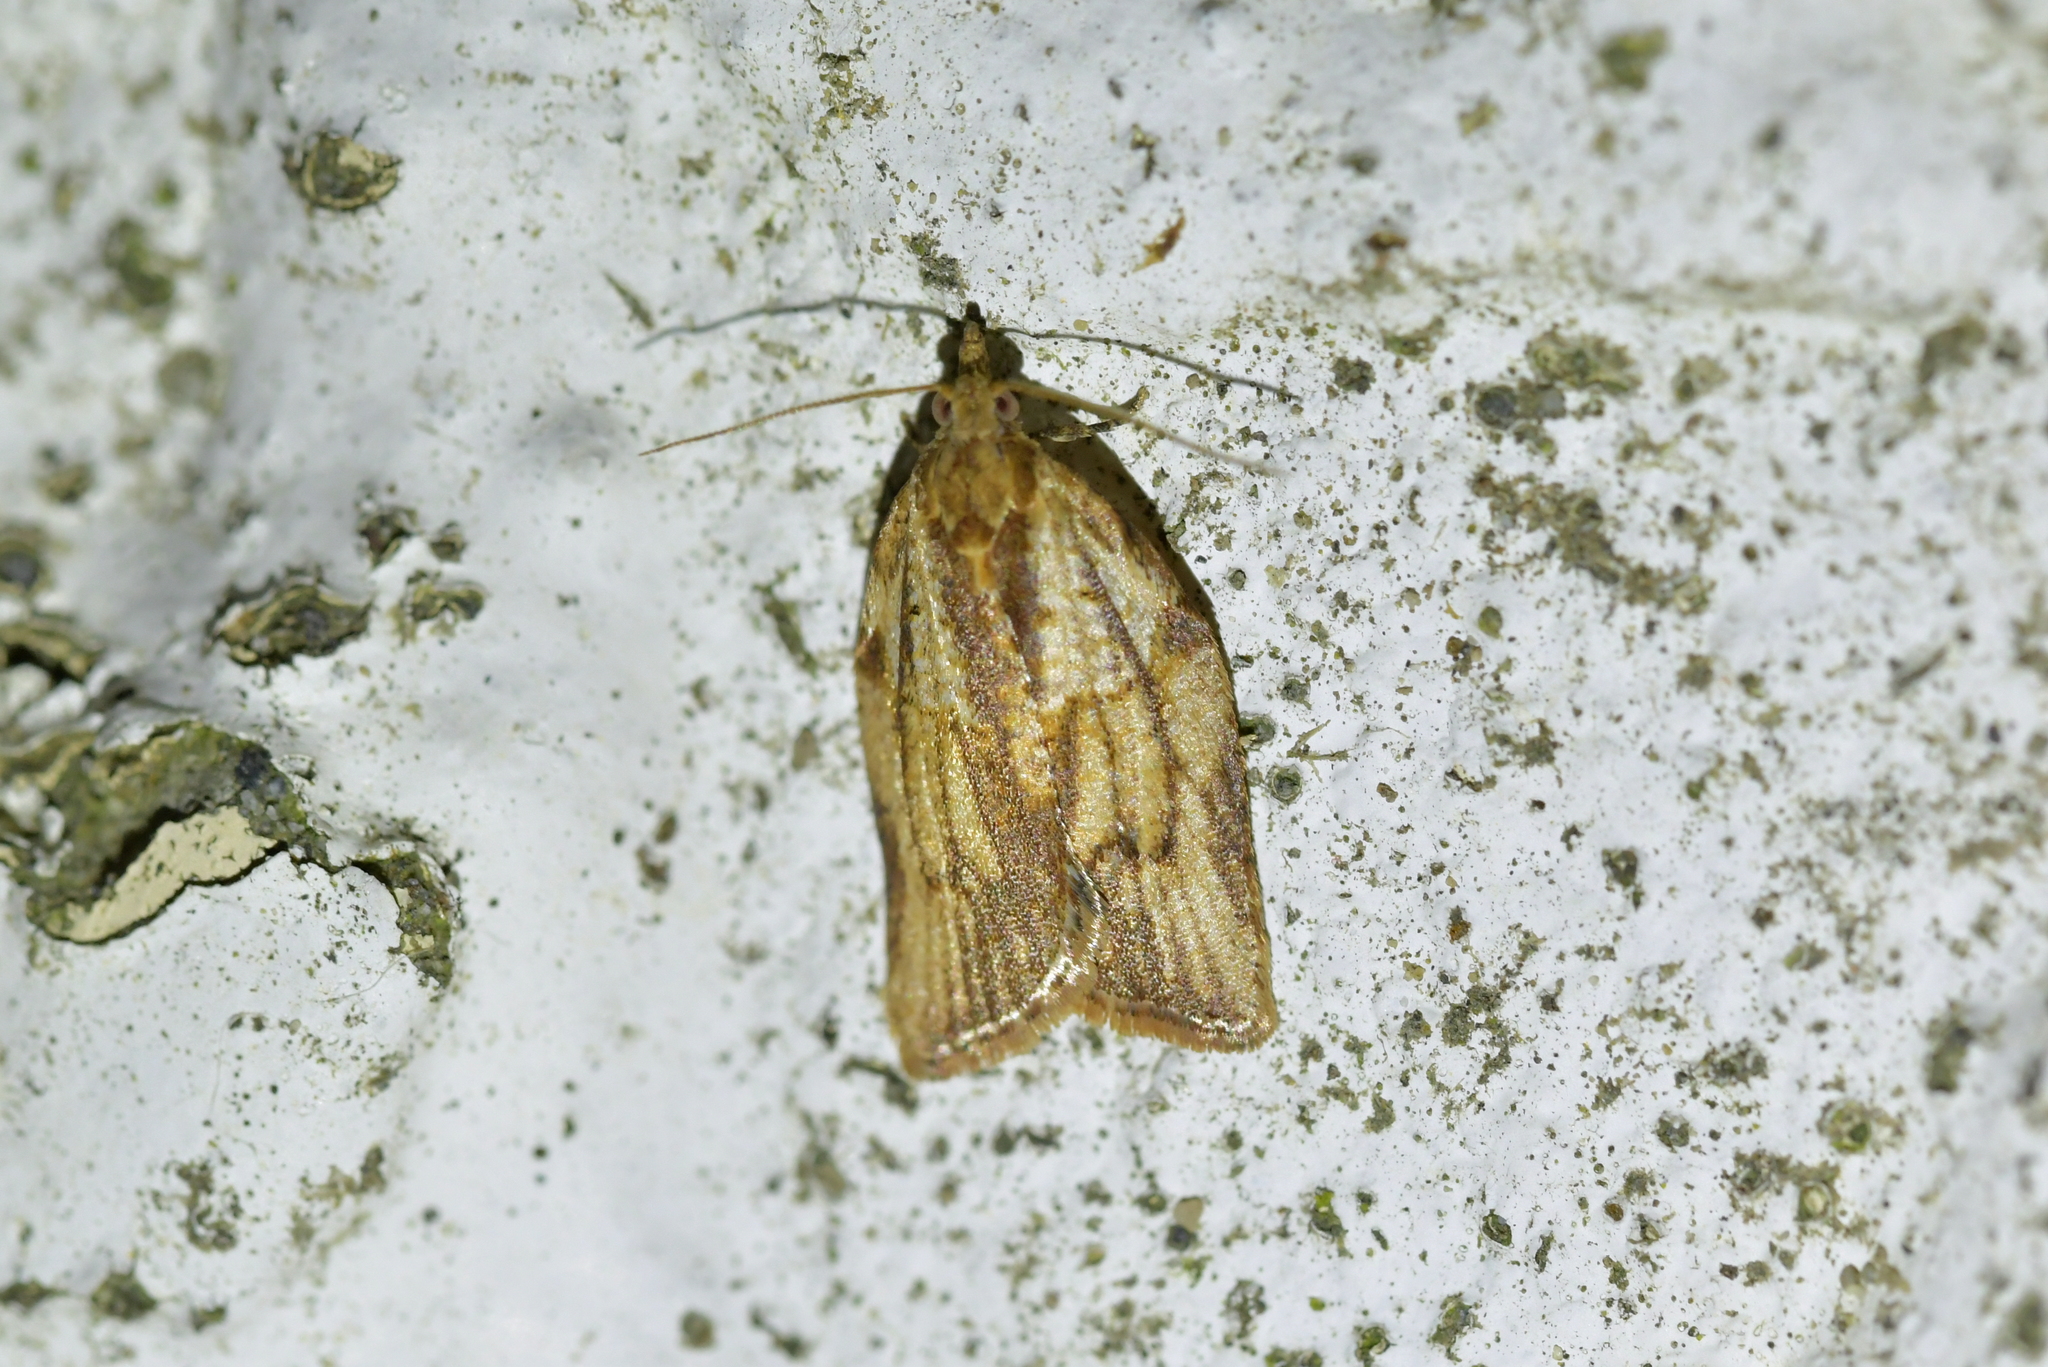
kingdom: Animalia
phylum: Arthropoda
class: Insecta
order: Lepidoptera
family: Tortricidae
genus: Epiphyas
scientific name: Epiphyas postvittana
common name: Light brown apple moth
